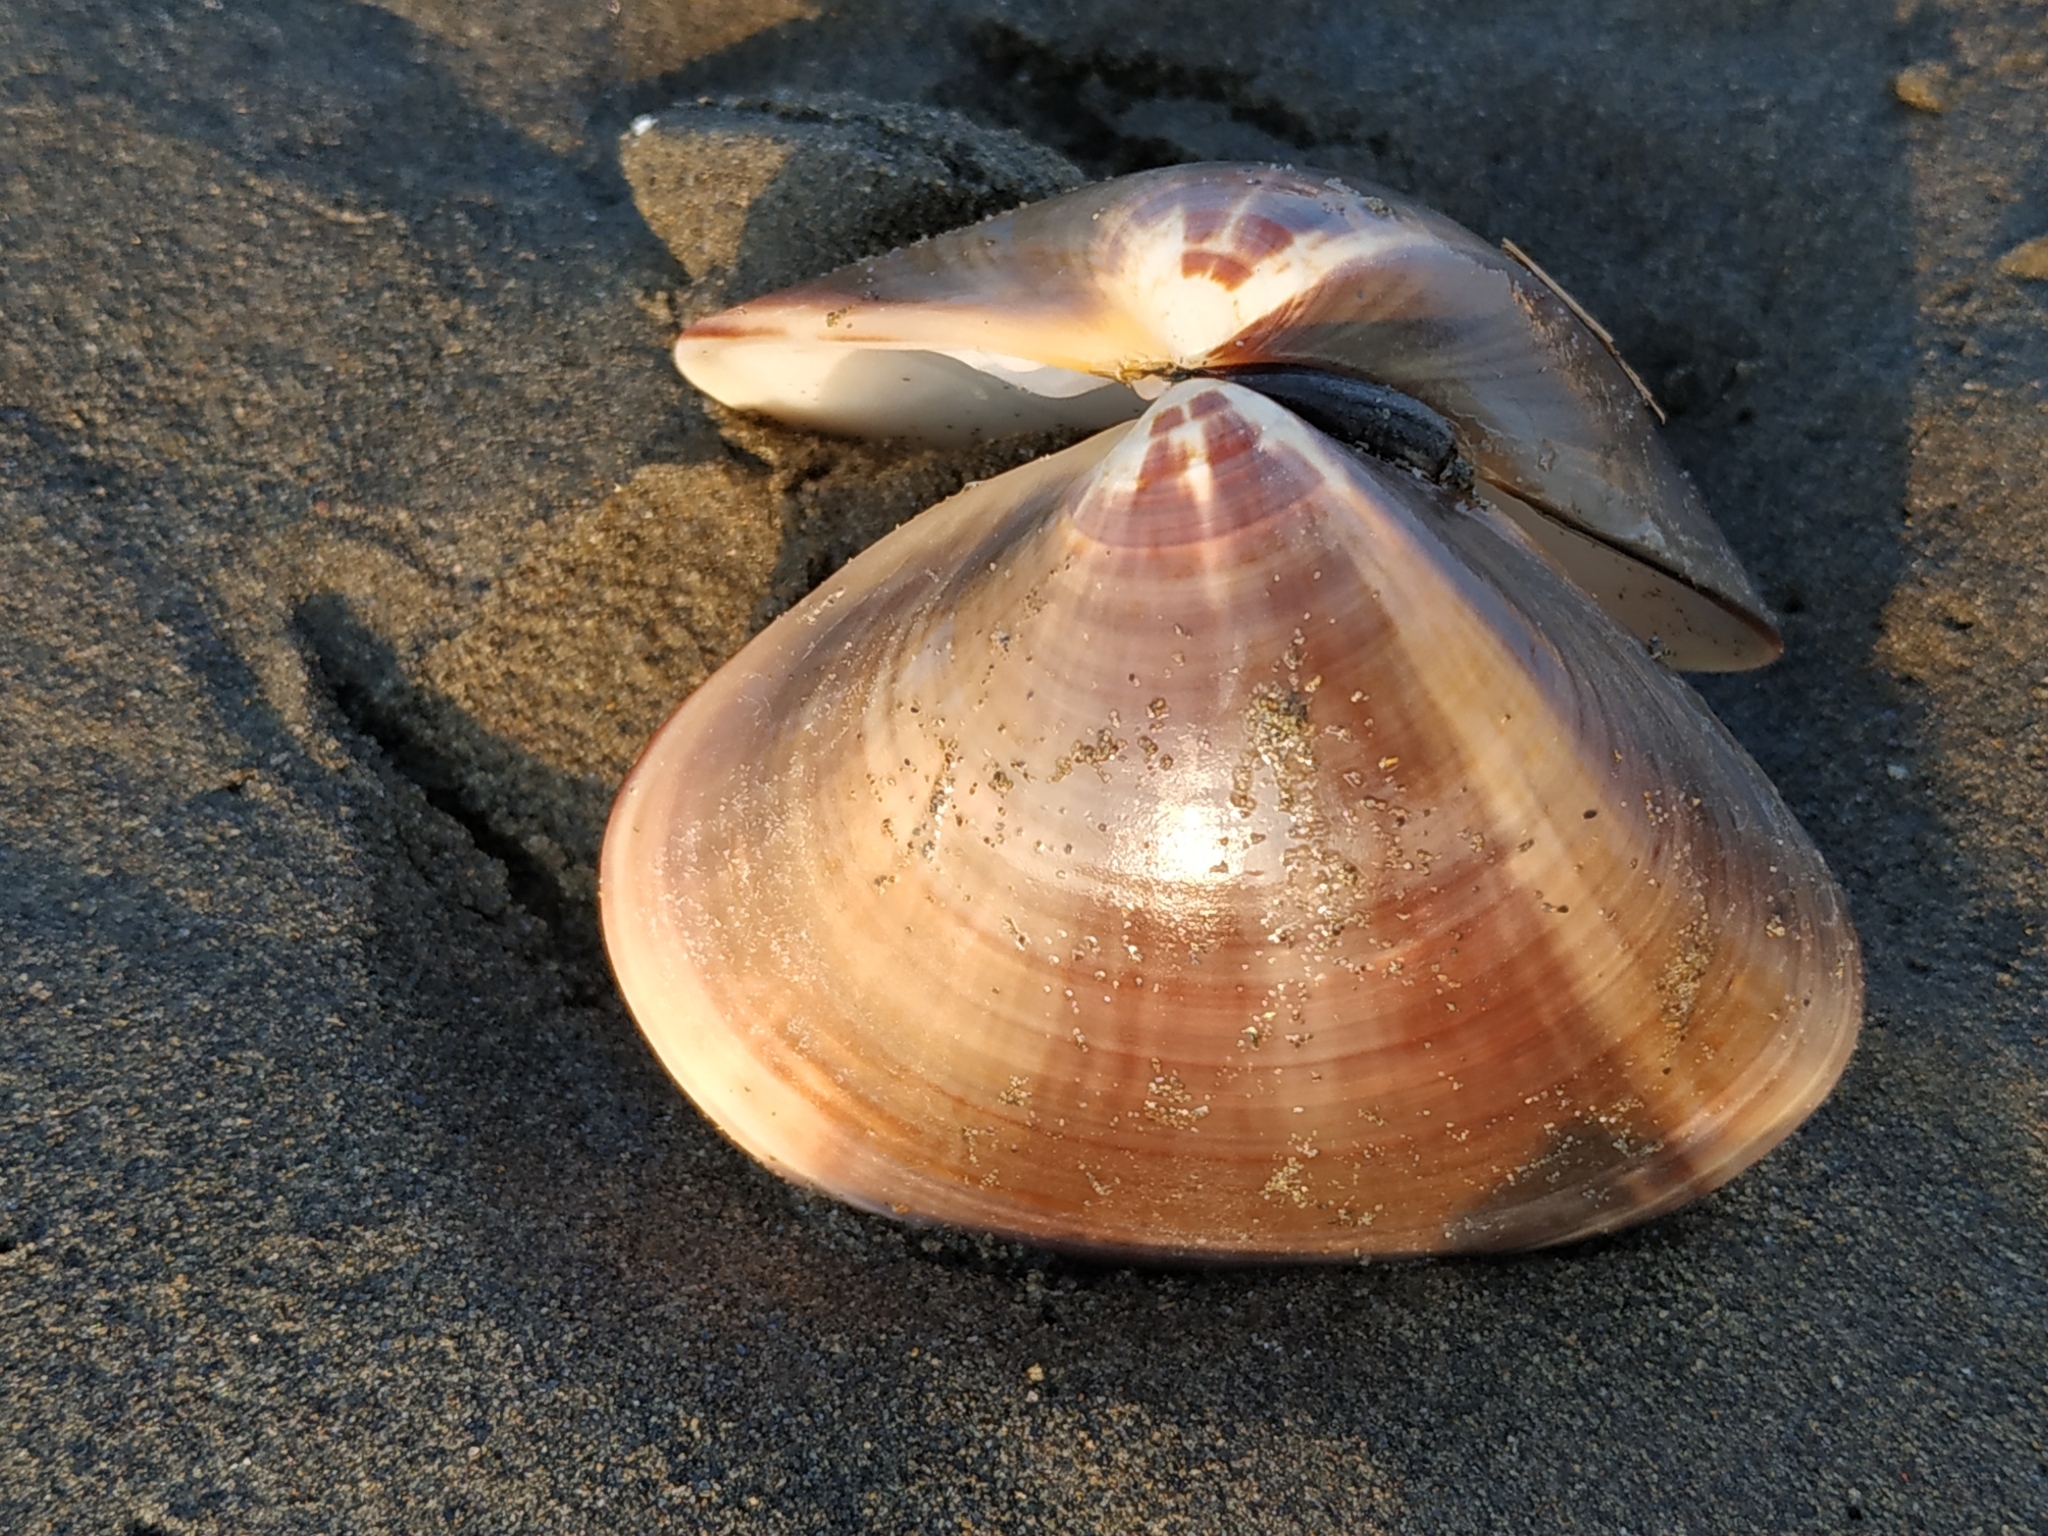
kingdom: Animalia
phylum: Mollusca
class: Bivalvia
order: Venerida
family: Veneridae
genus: Meretrix
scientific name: Meretrix lamarckii
